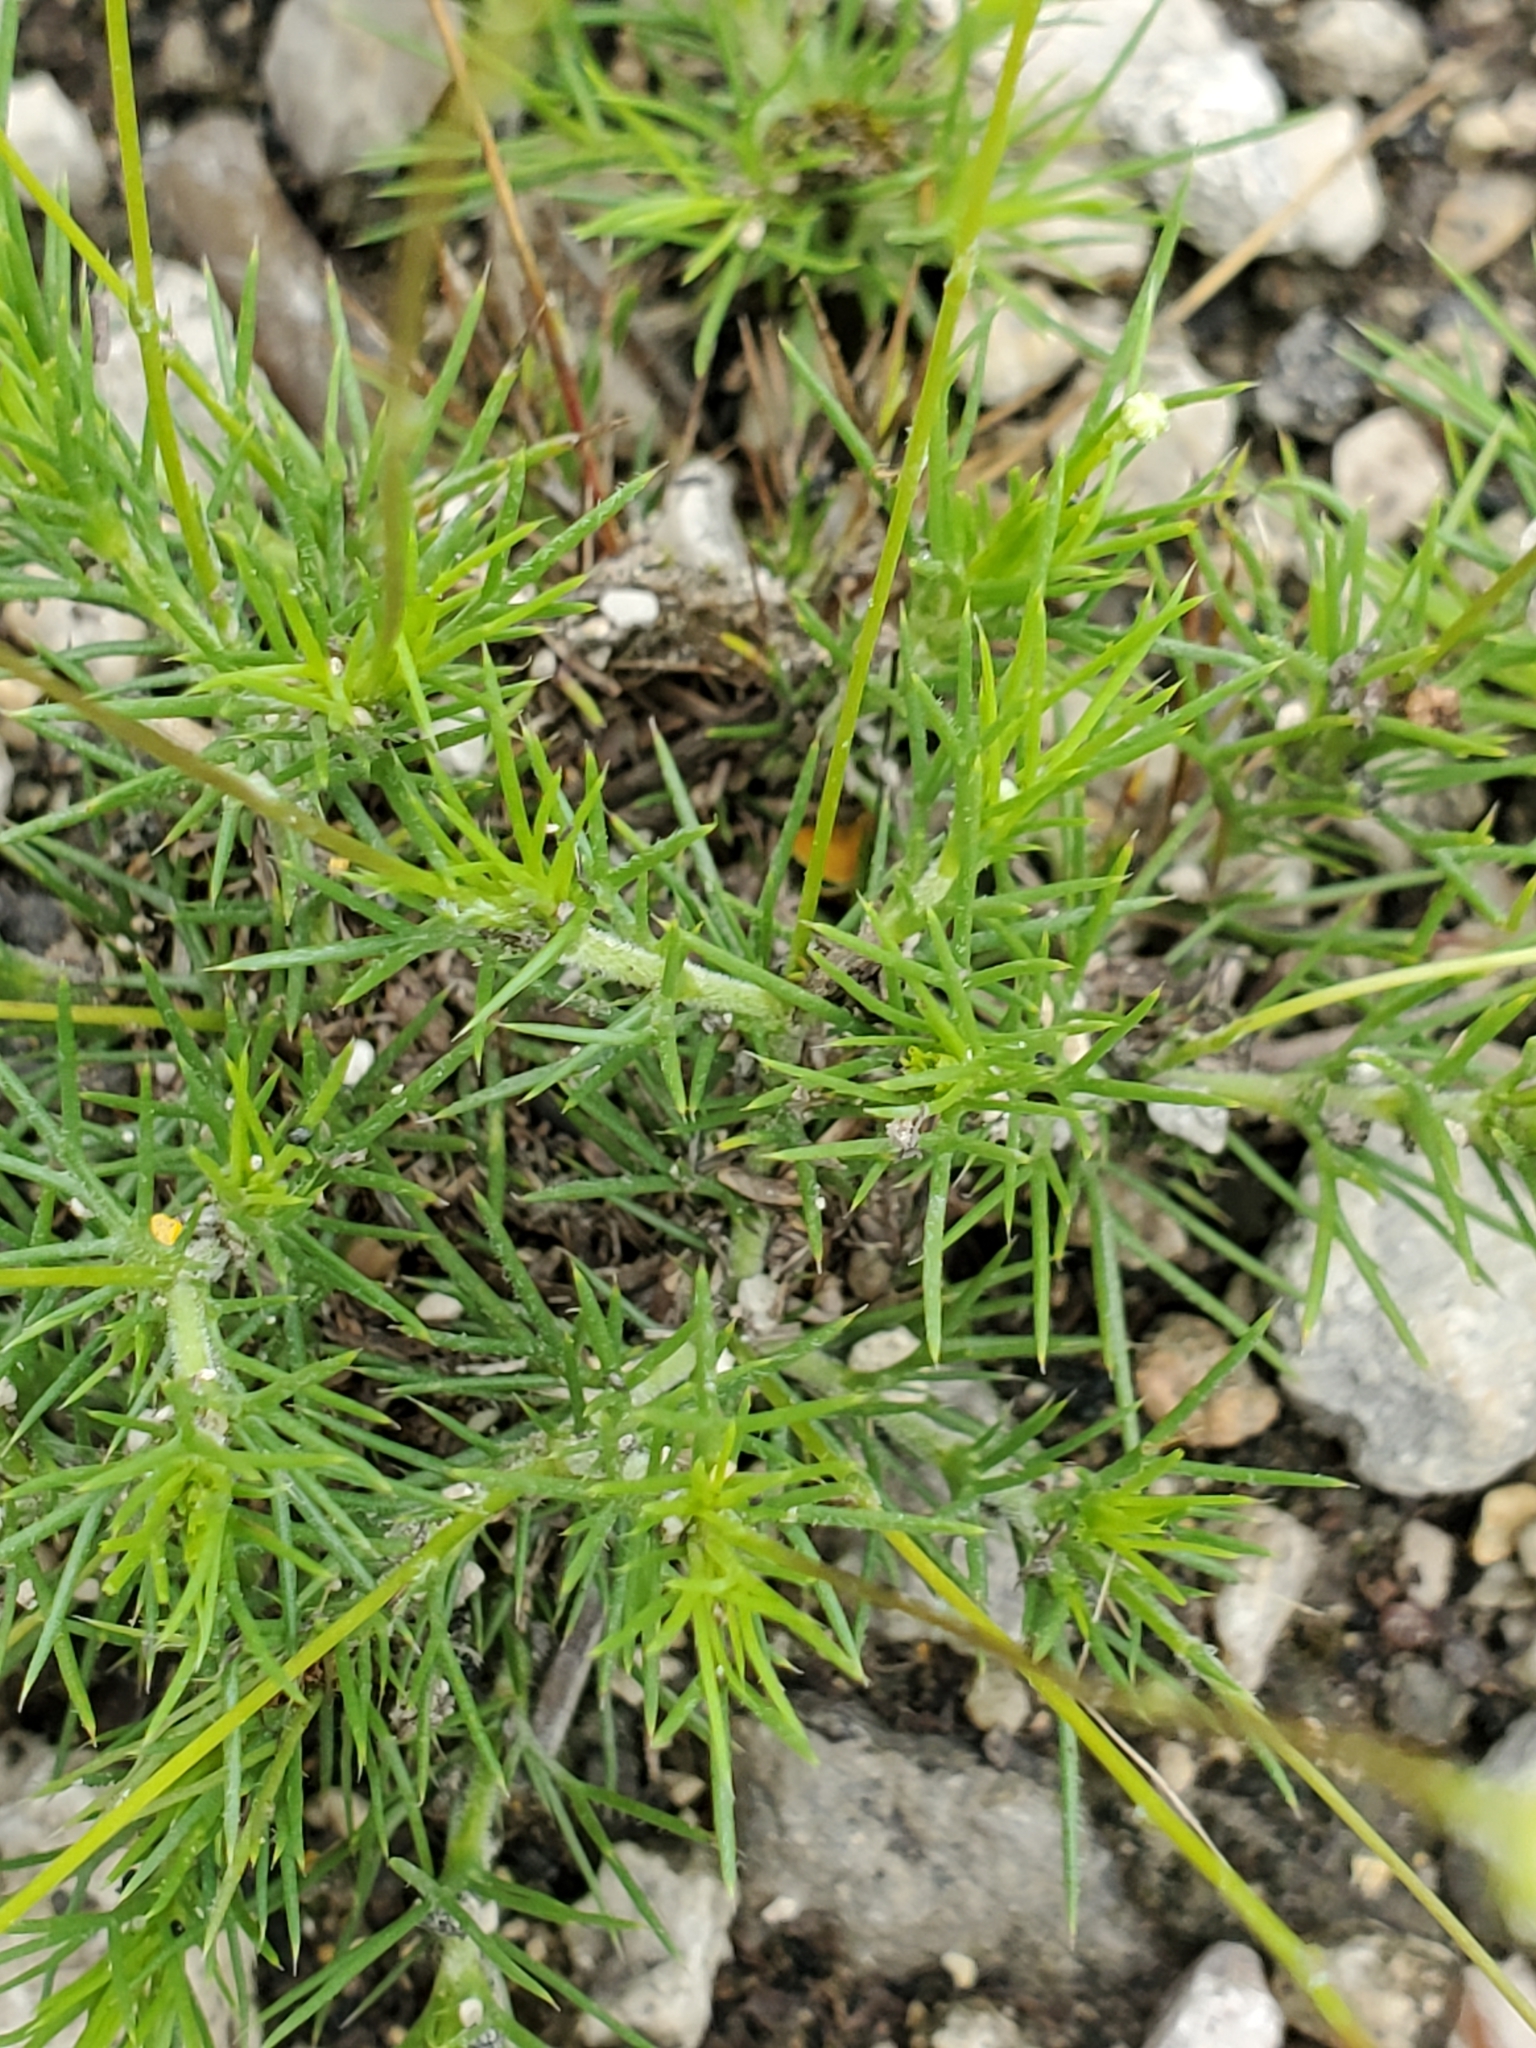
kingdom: Plantae
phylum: Tracheophyta
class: Magnoliopsida
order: Asterales
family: Asteraceae
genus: Thymophylla
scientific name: Thymophylla pentachaeta
